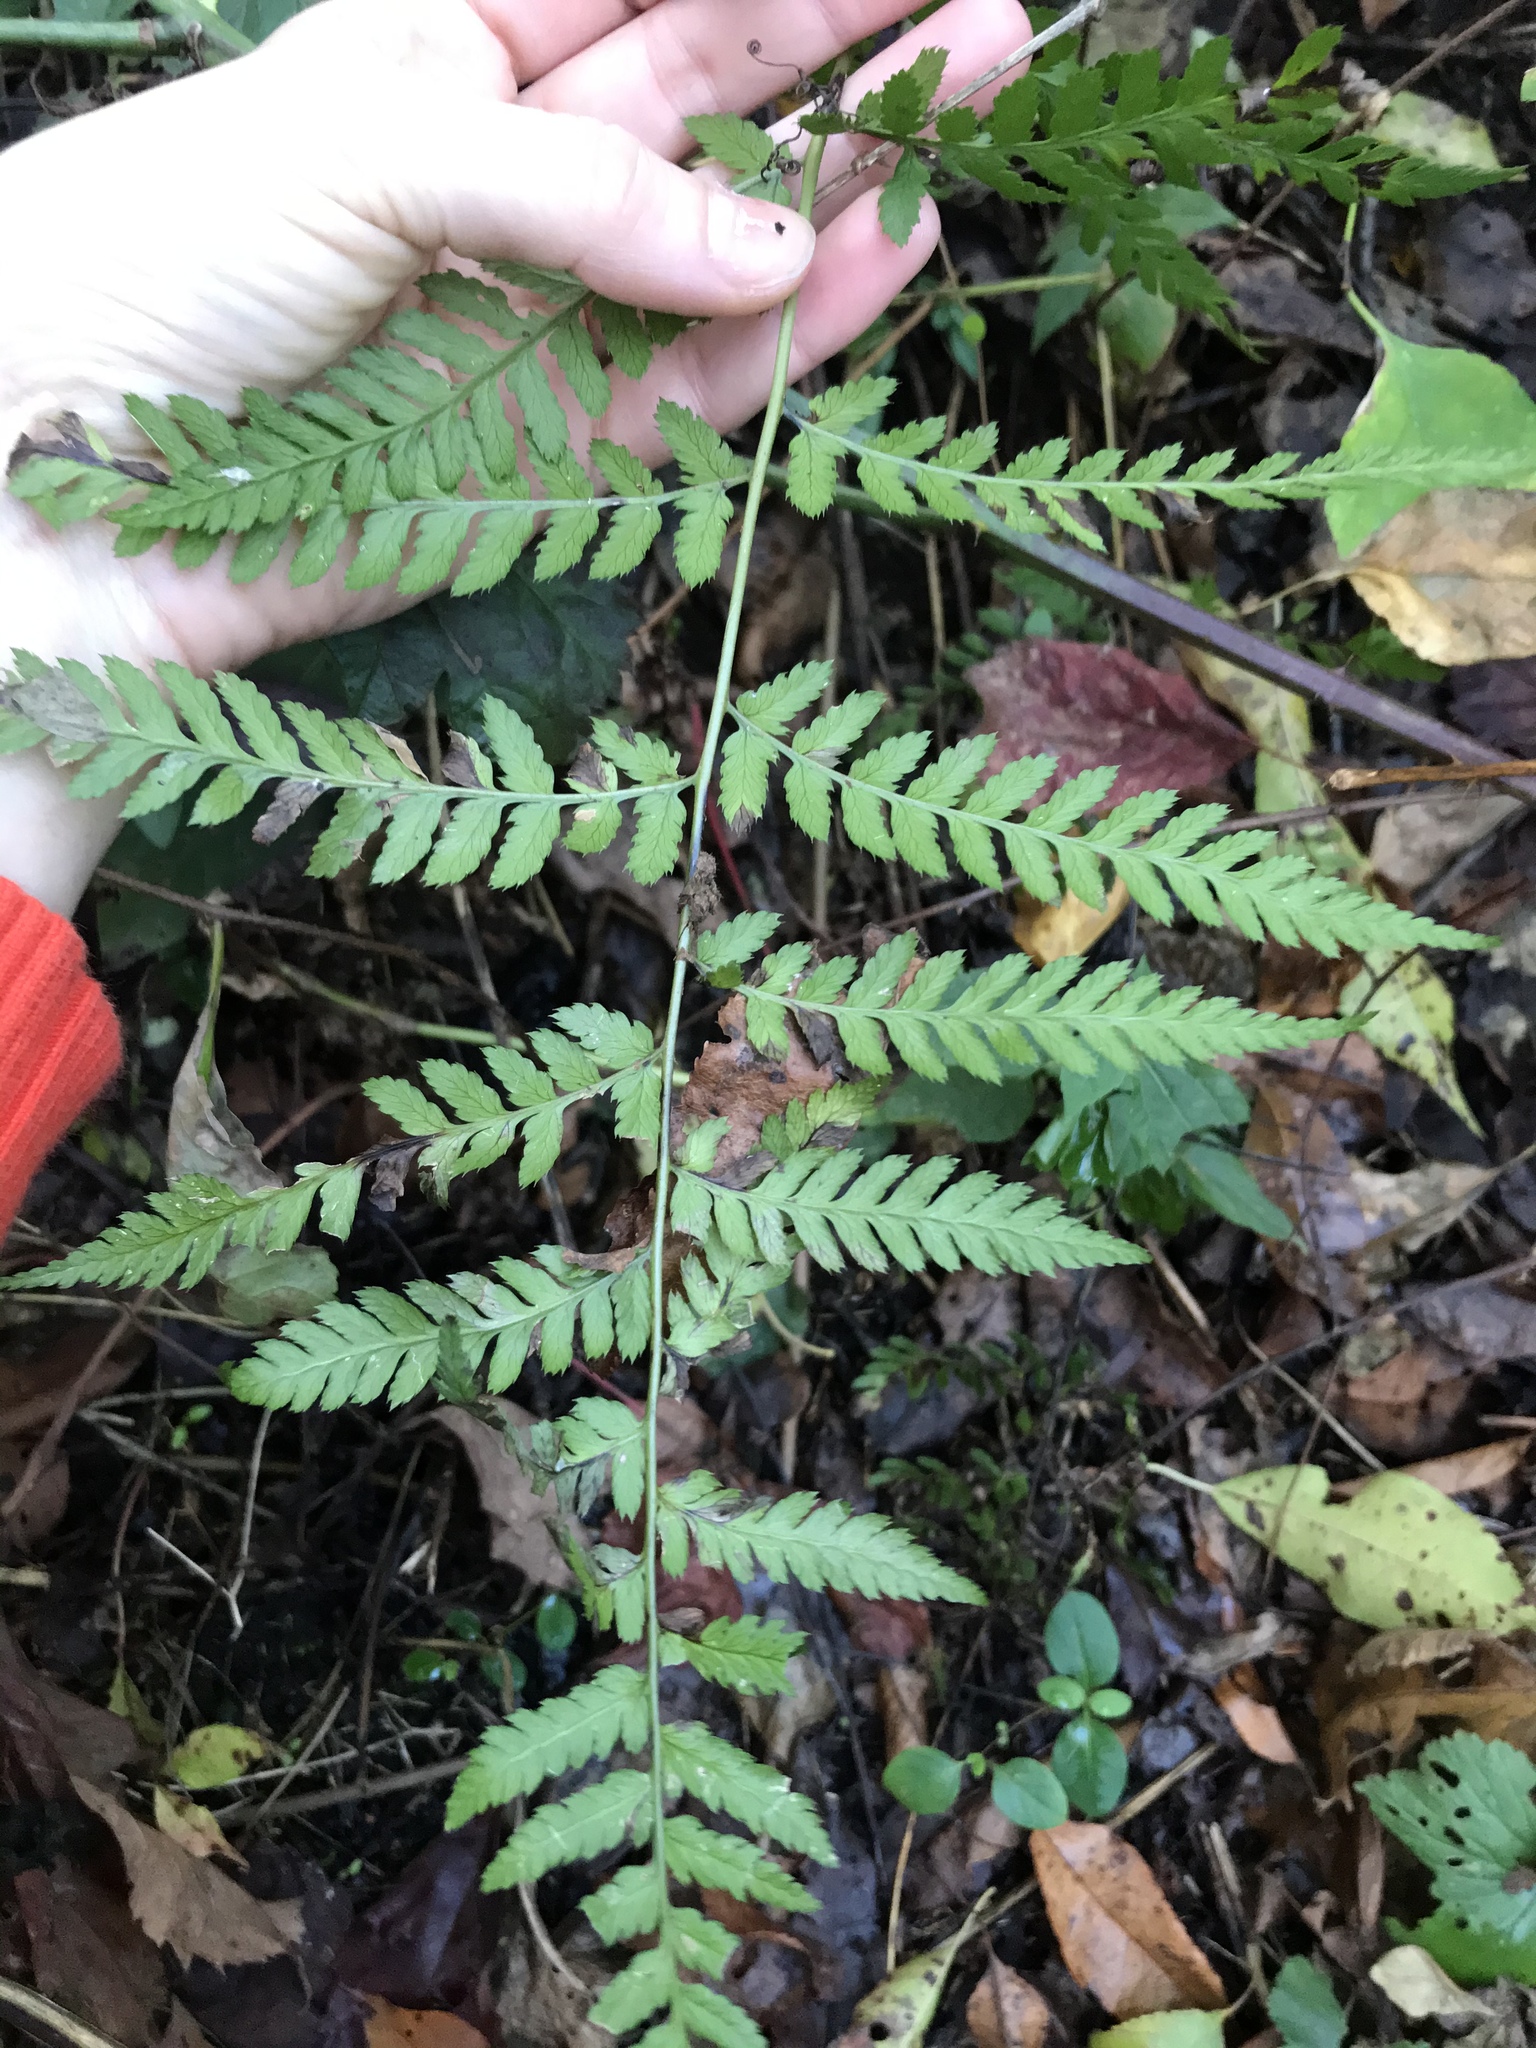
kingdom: Plantae
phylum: Tracheophyta
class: Polypodiopsida
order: Polypodiales
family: Dryopteridaceae
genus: Dryopteris
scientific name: Dryopteris carthusiana
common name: Narrow buckler-fern
